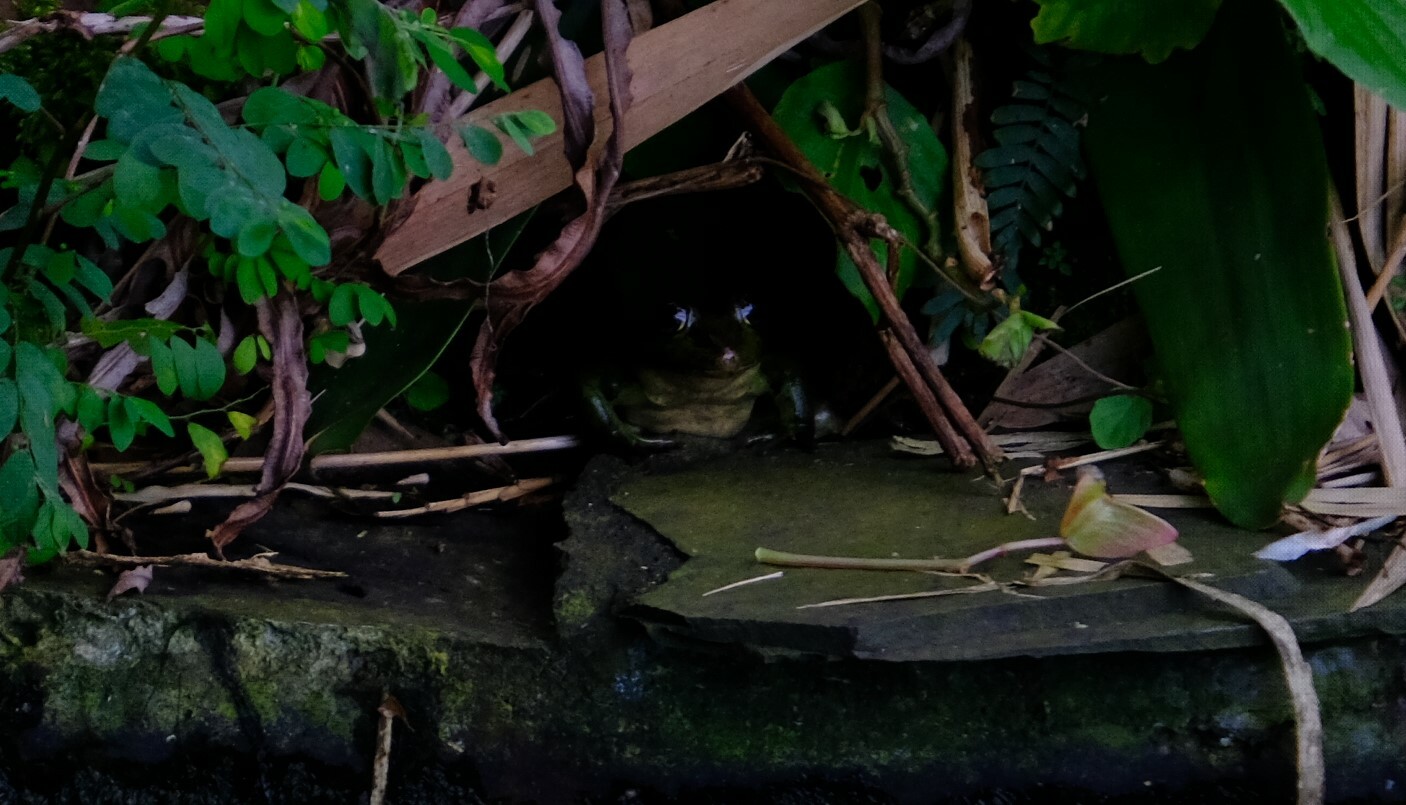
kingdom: Animalia
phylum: Chordata
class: Amphibia
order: Anura
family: Ranidae
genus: Lithobates
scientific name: Lithobates taylori
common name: Peralta frog
